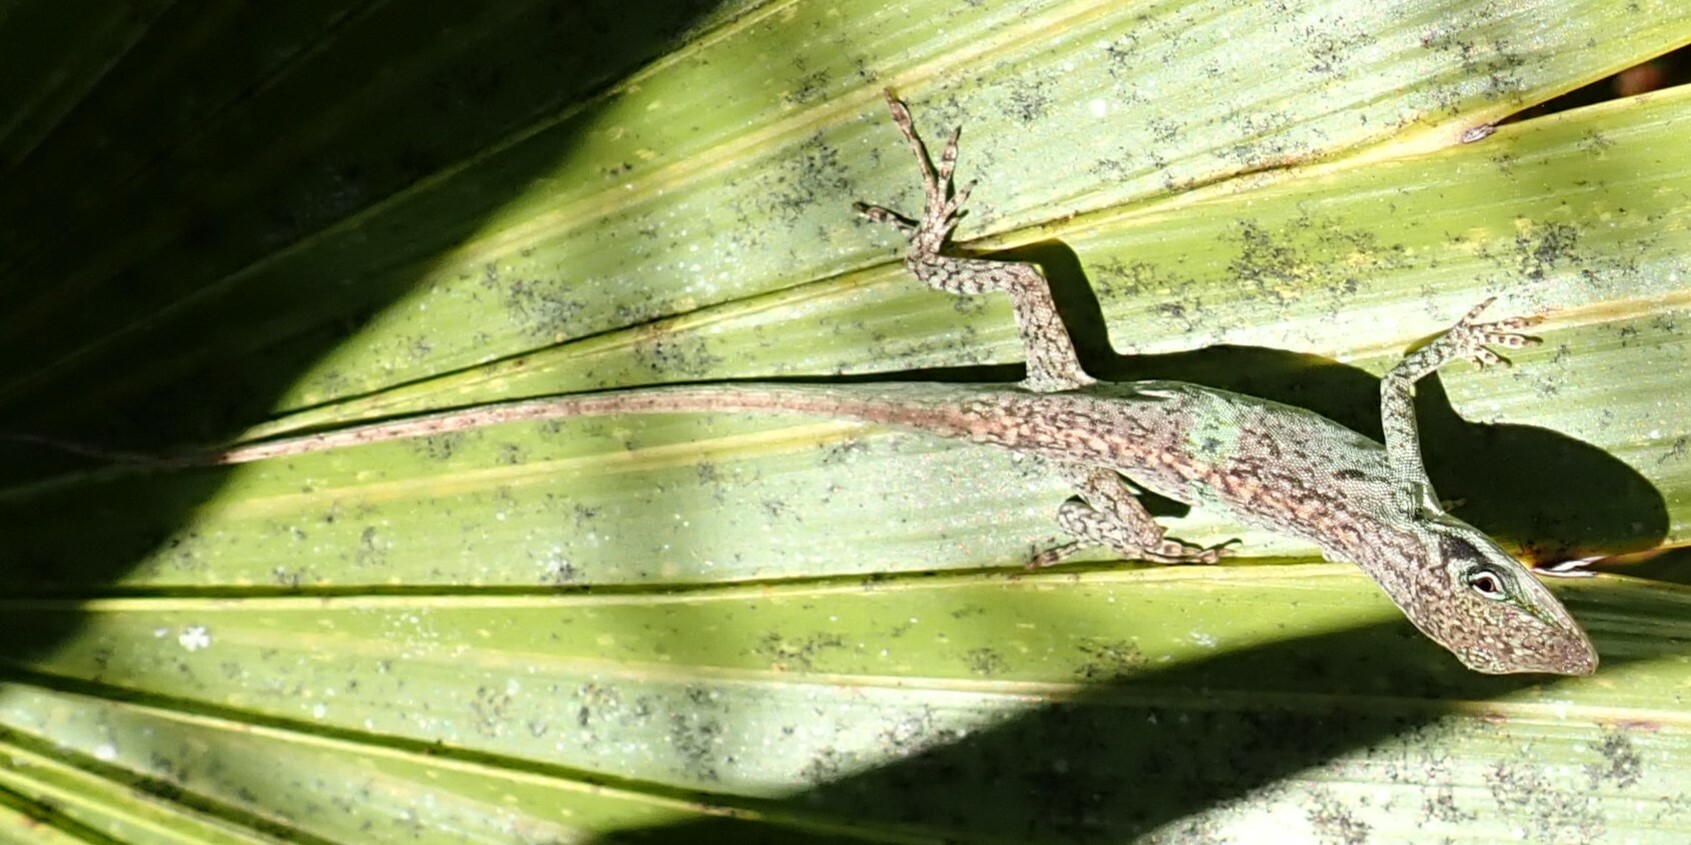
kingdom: Animalia
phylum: Chordata
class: Squamata
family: Dactyloidae
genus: Anolis
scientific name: Anolis carolinensis
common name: Green anole
